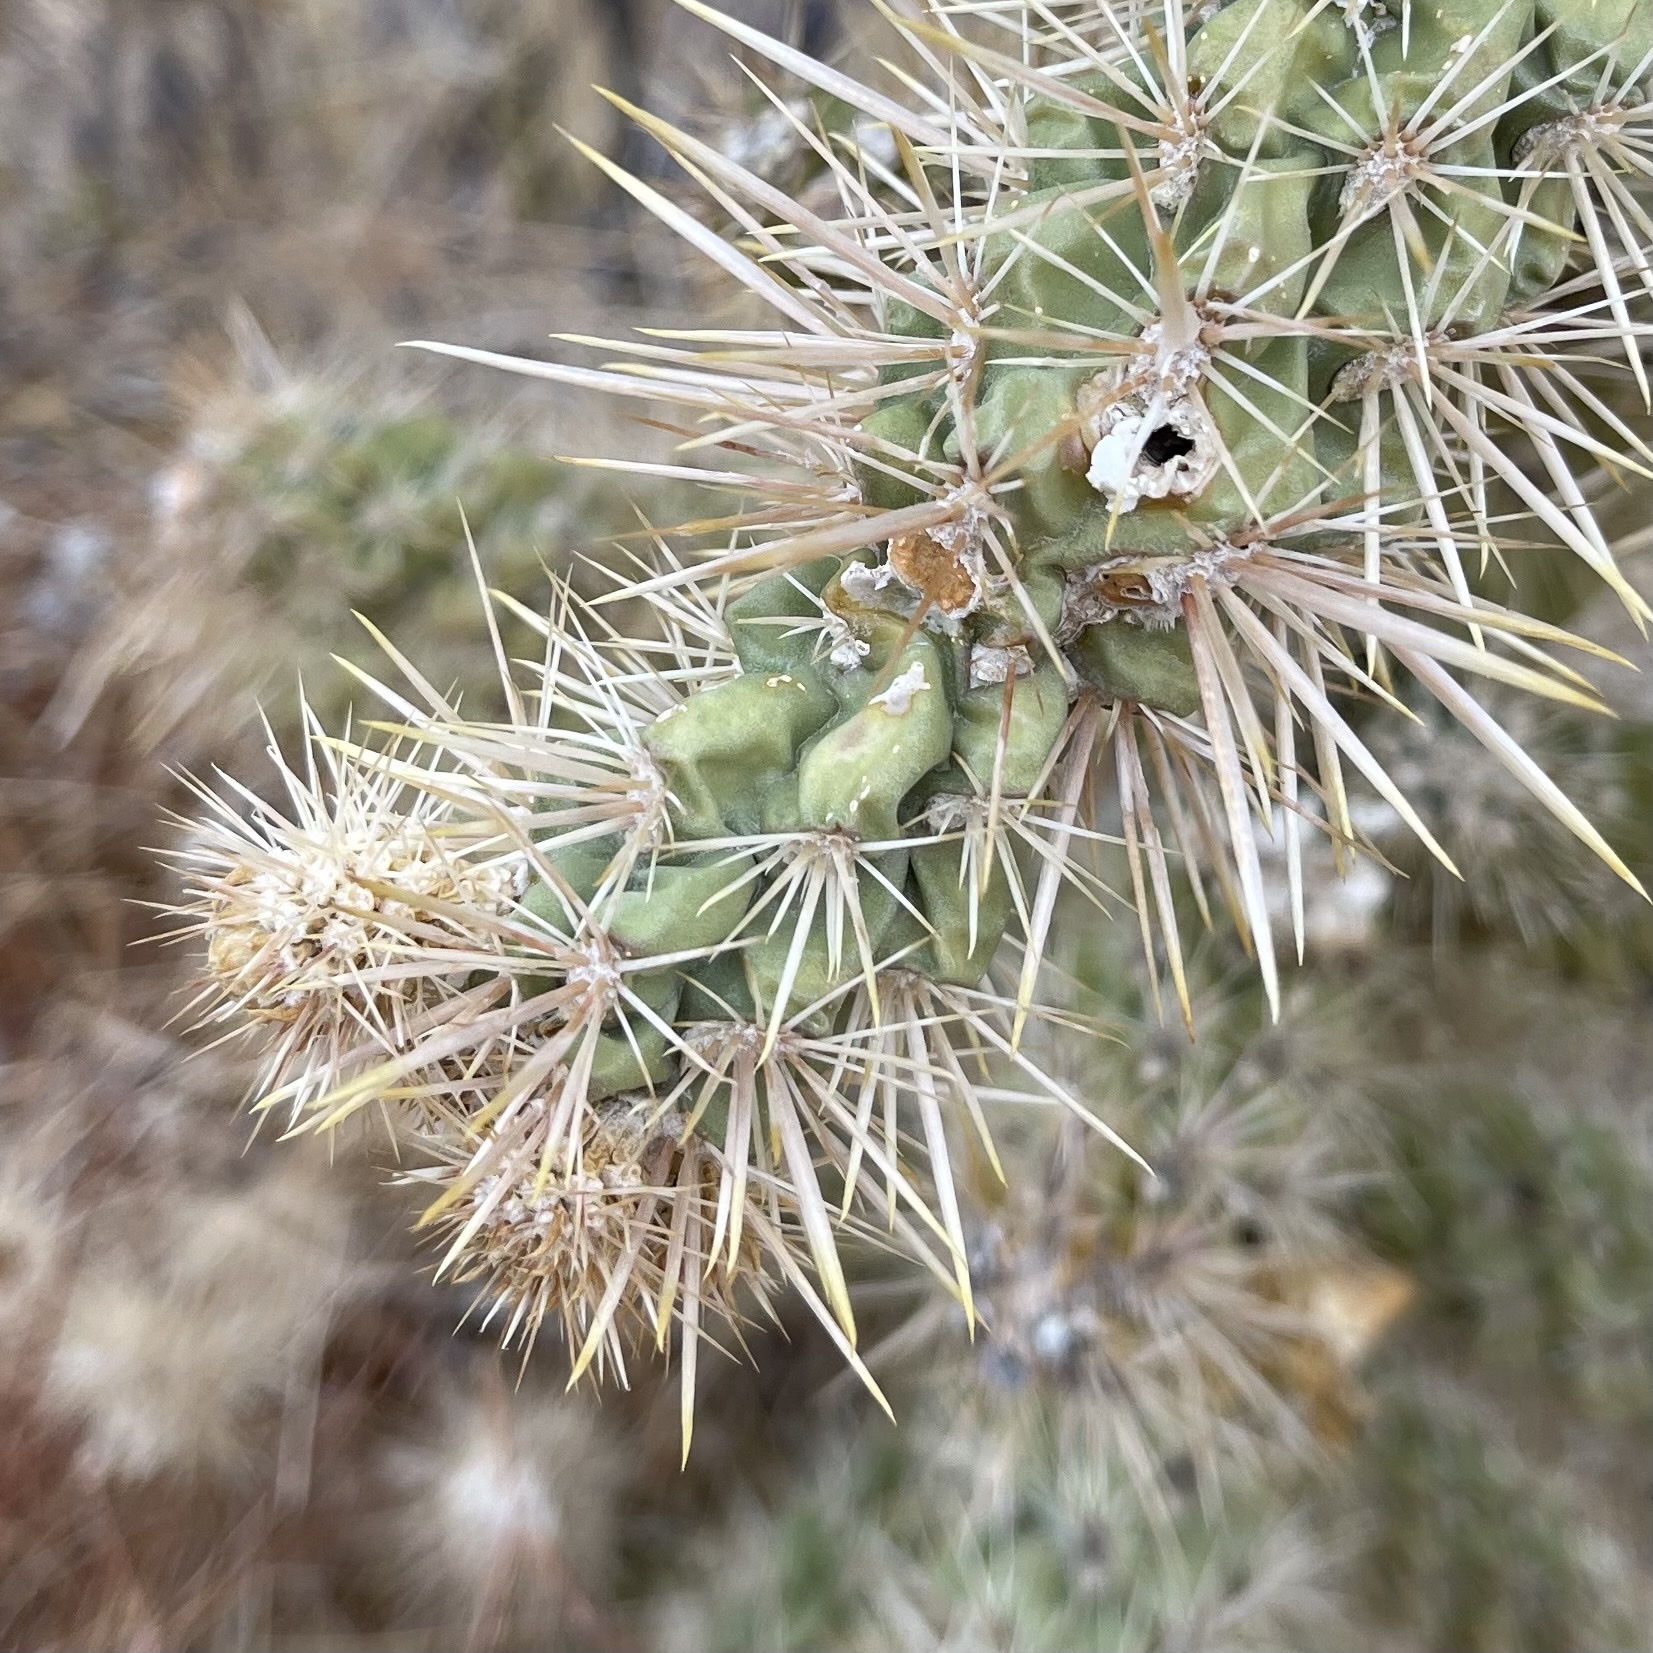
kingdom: Plantae
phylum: Tracheophyta
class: Magnoliopsida
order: Caryophyllales
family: Cactaceae
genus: Cylindropuntia
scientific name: Cylindropuntia echinocarpa
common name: Ground cholla
